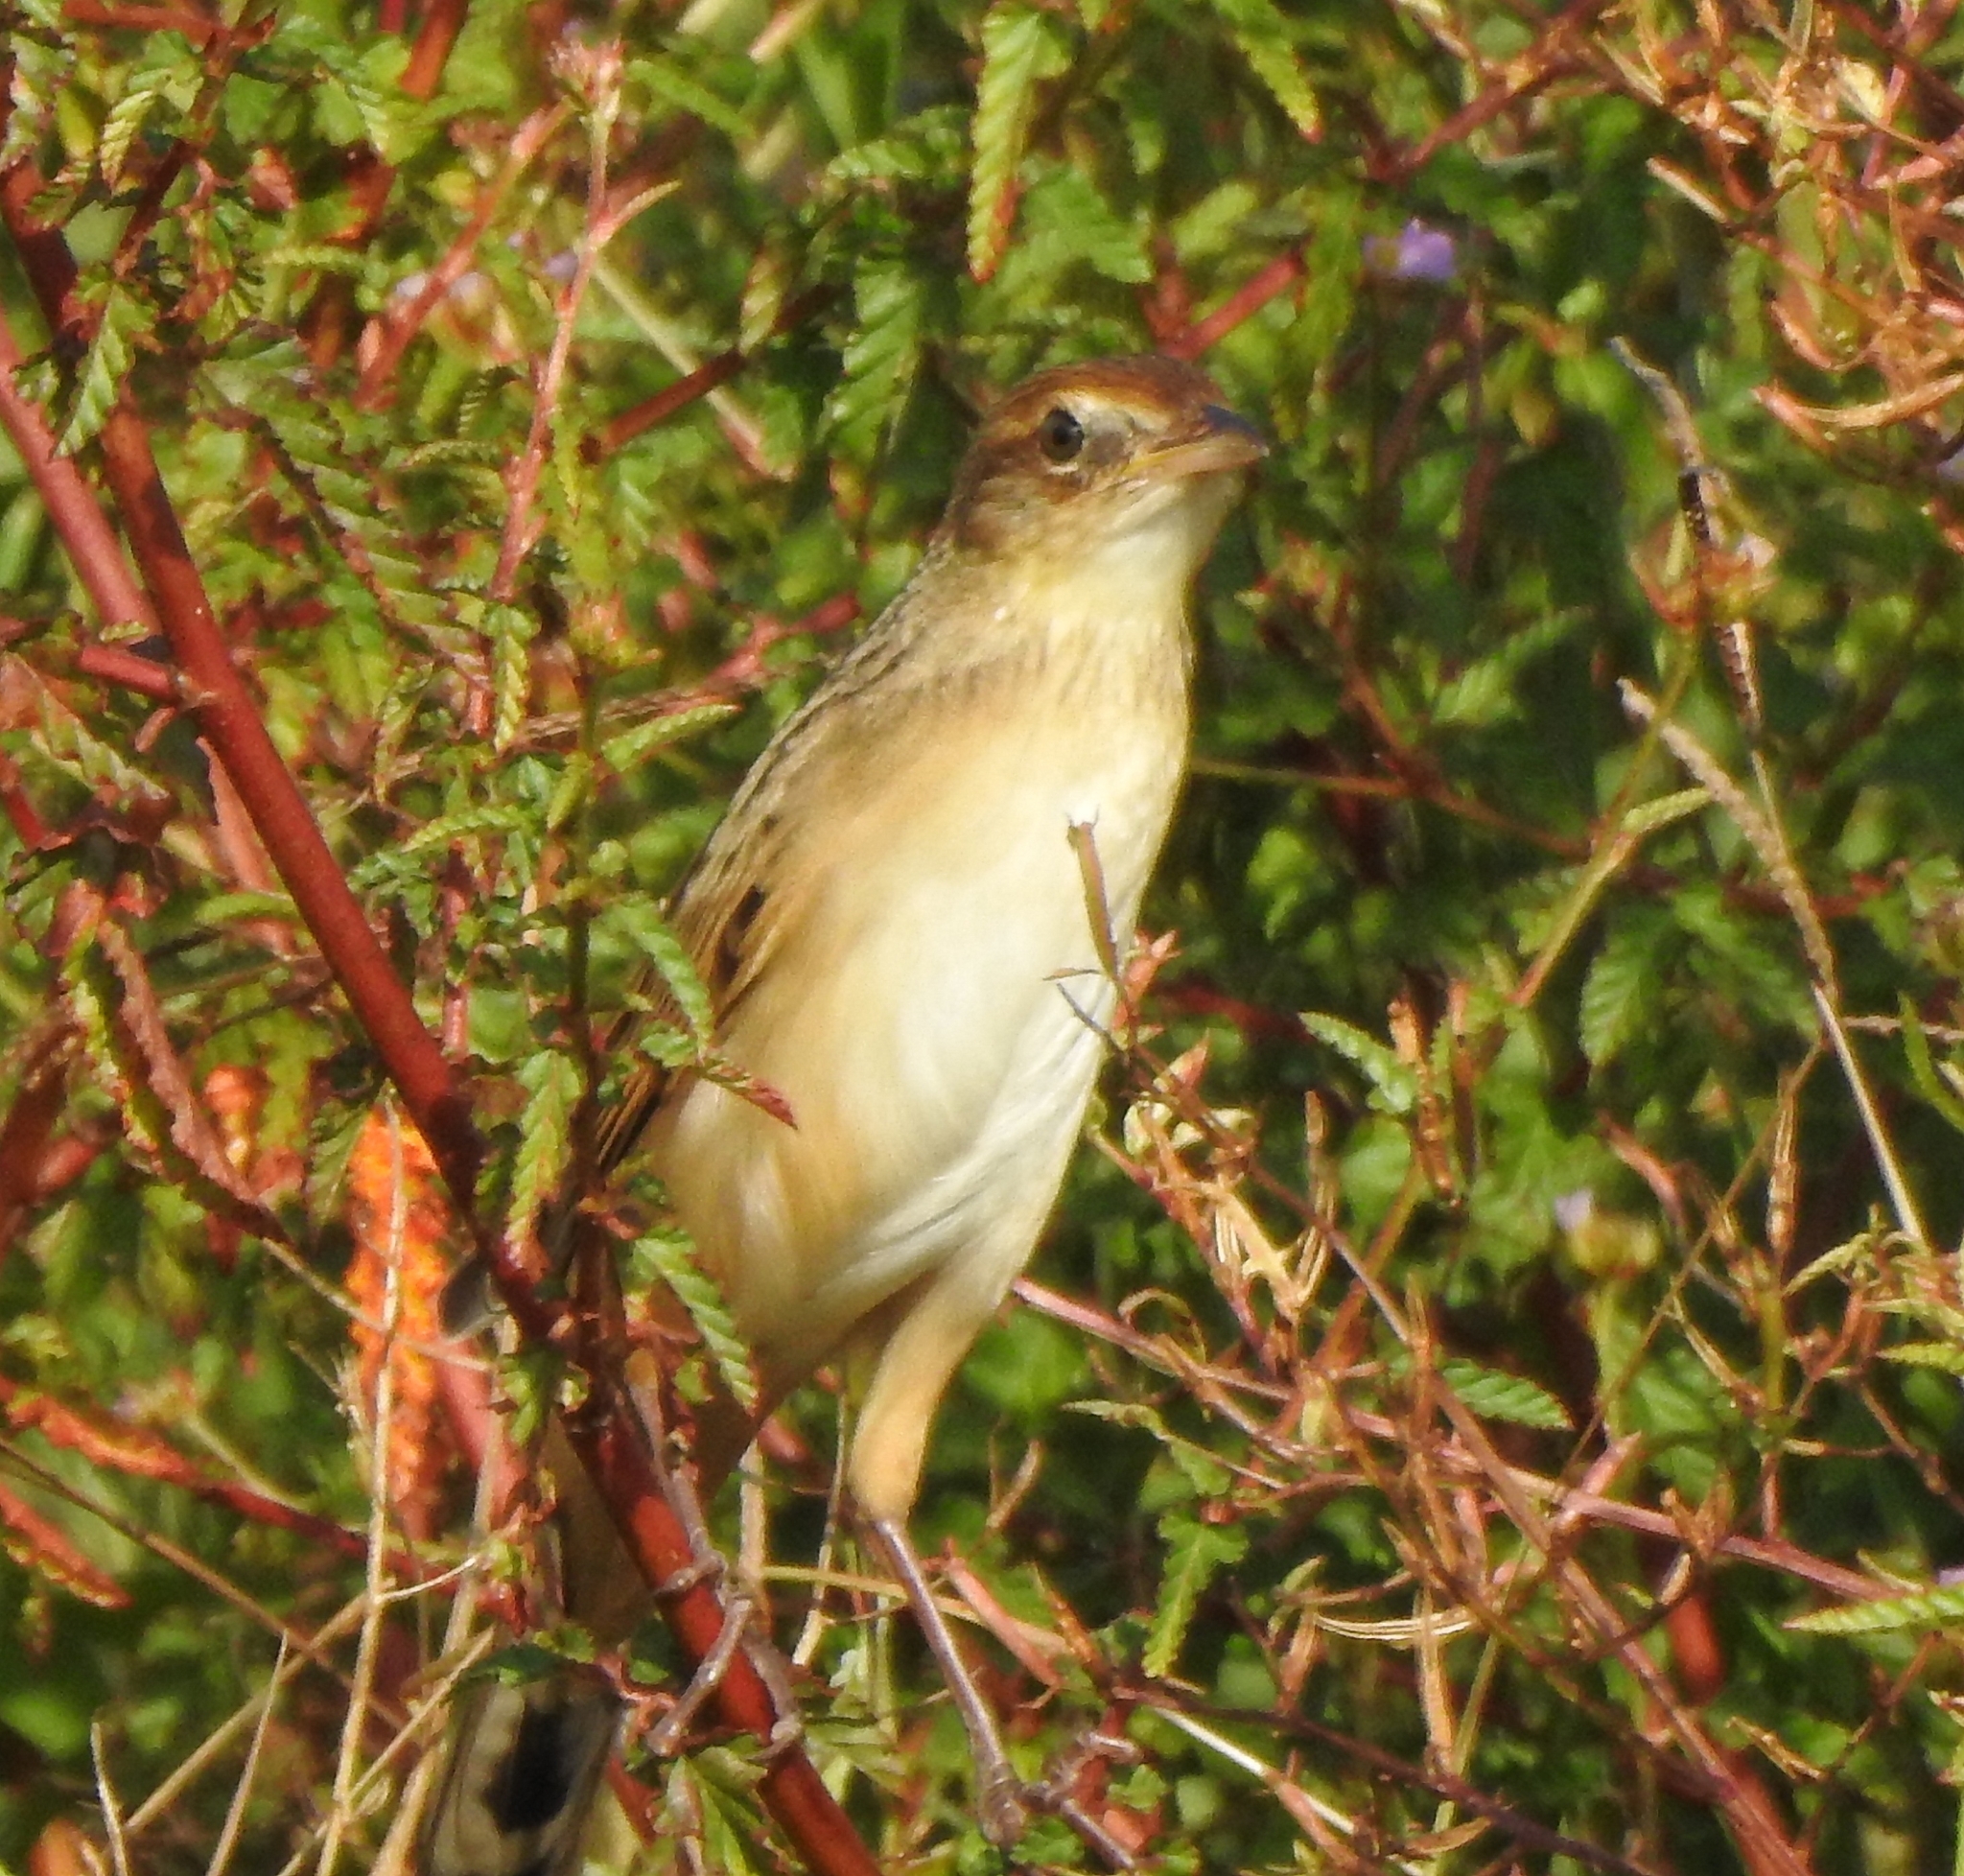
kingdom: Animalia
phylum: Chordata
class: Aves
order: Passeriformes
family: Locustellidae
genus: Chaetornis
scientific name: Chaetornis striata
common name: Bristled grassbird
